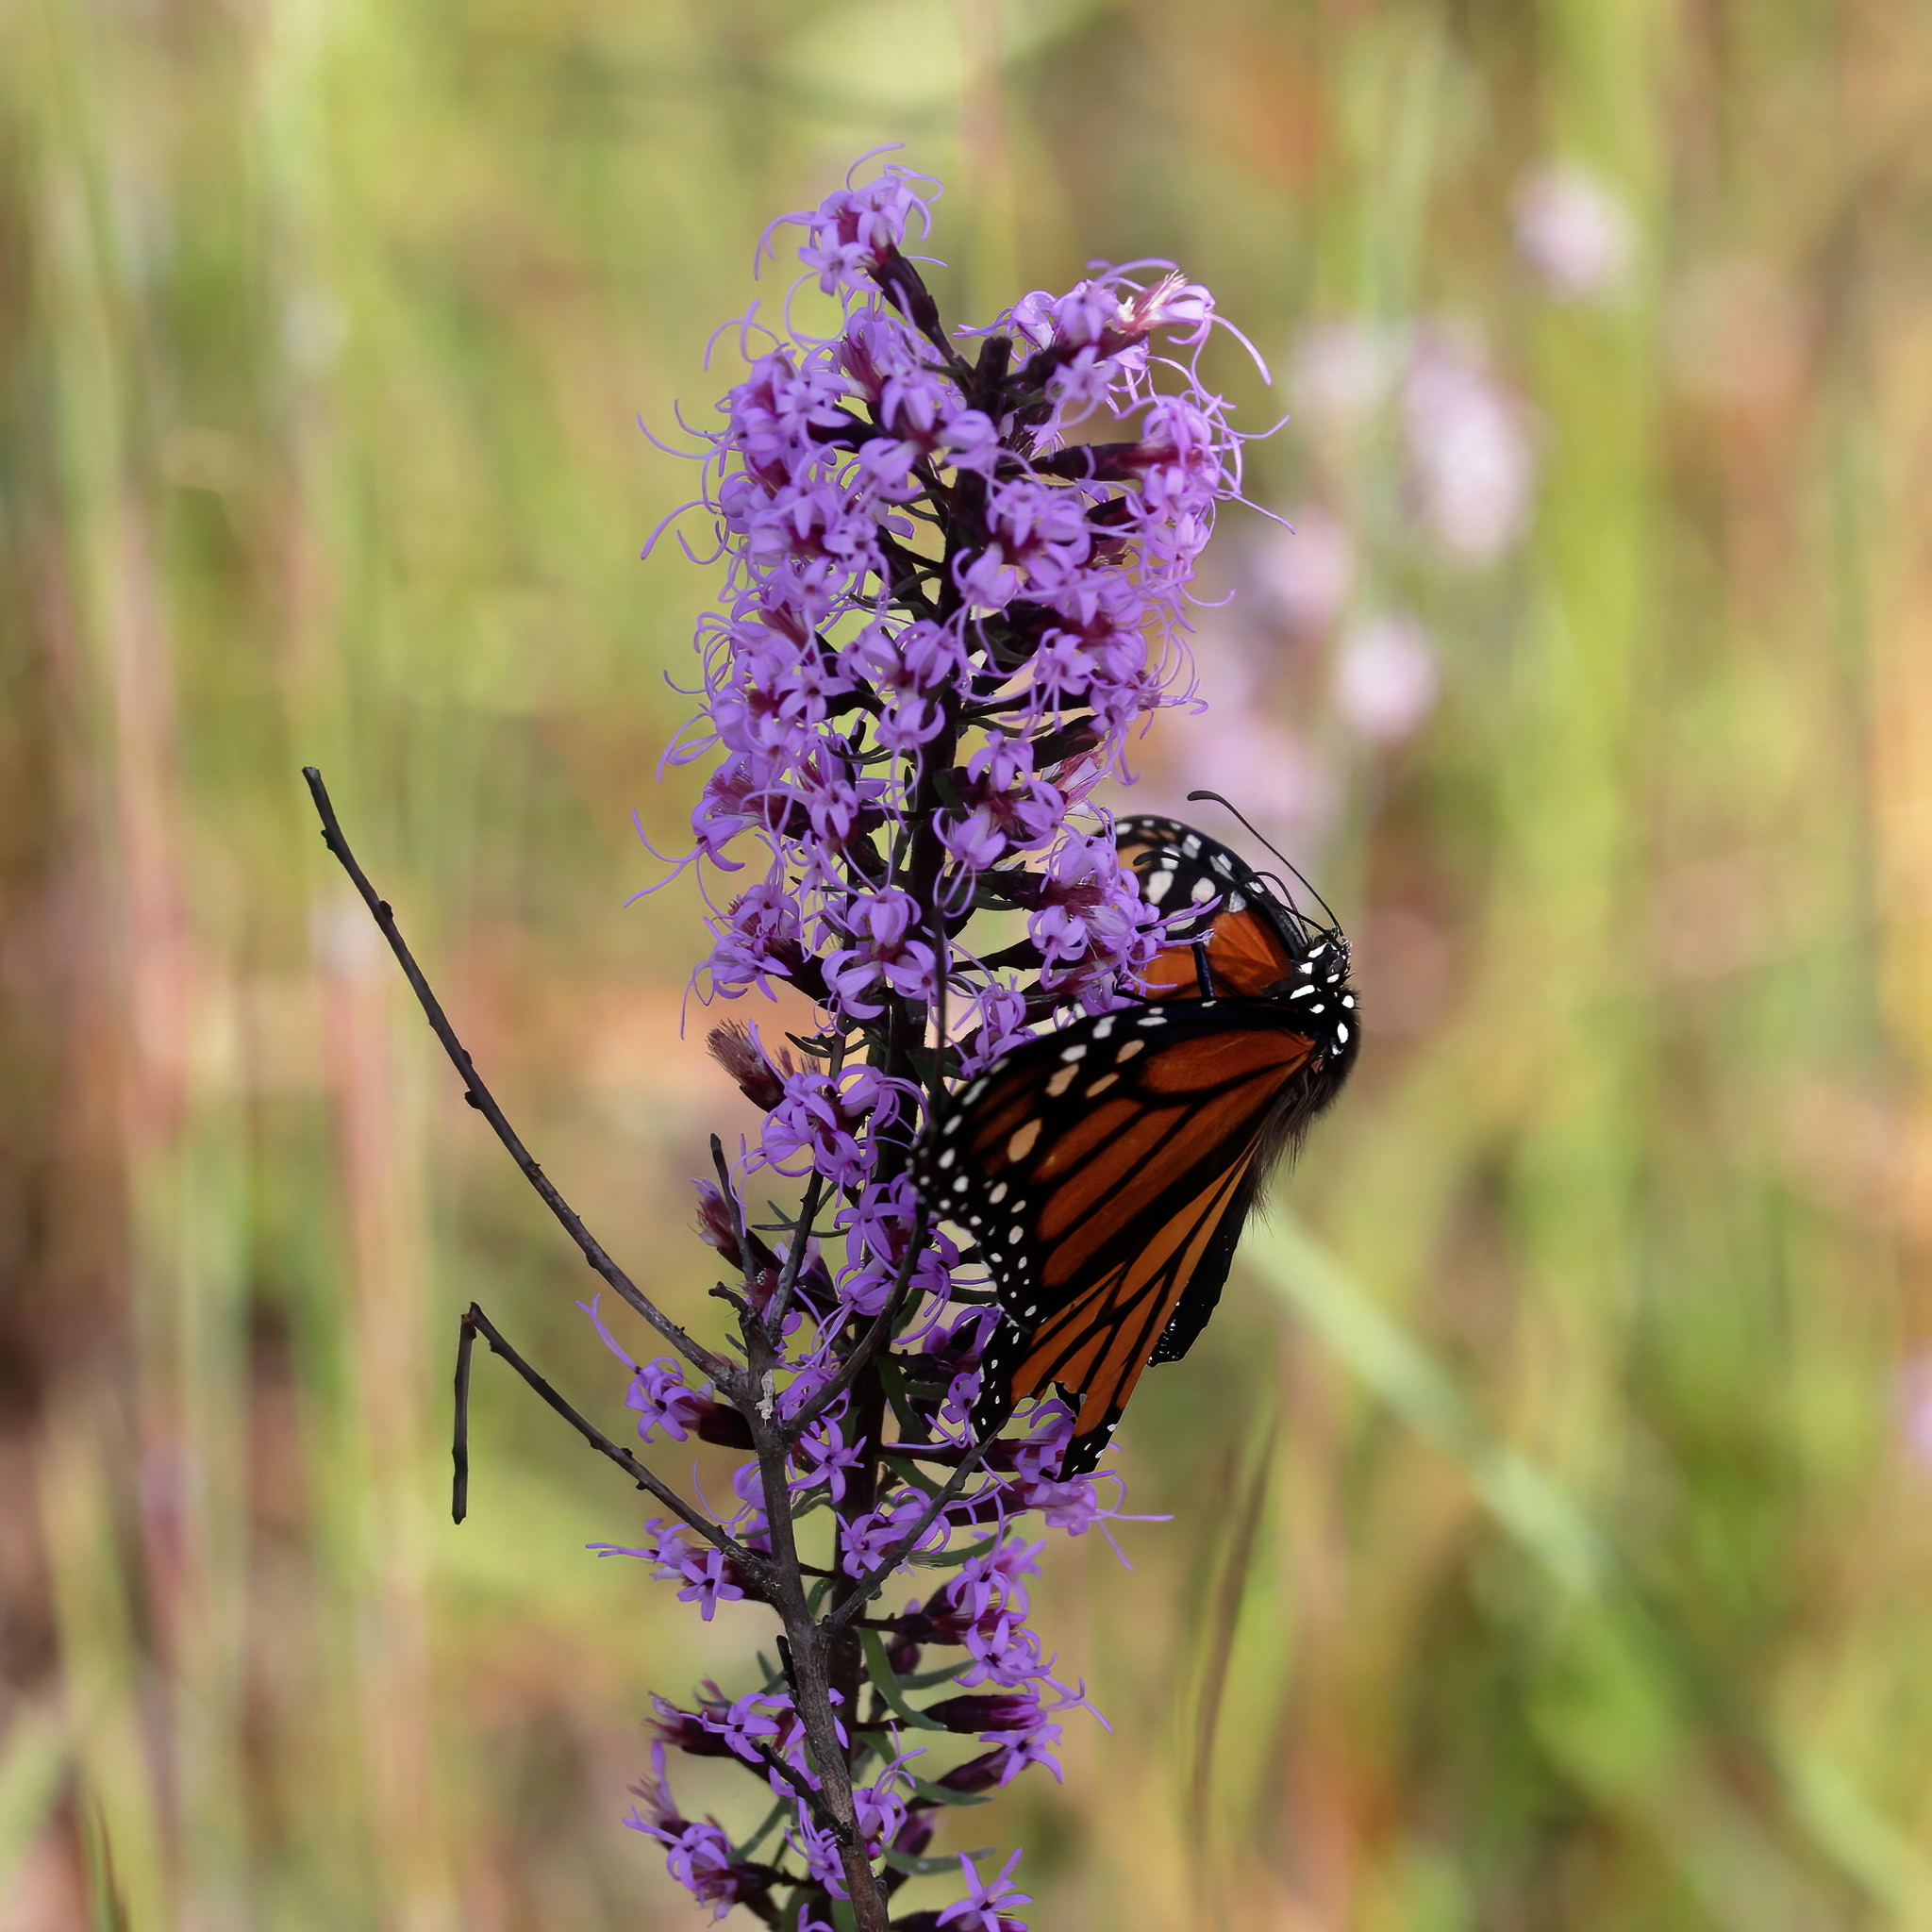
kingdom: Animalia
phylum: Arthropoda
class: Insecta
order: Lepidoptera
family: Nymphalidae
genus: Danaus
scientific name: Danaus plexippus
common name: Monarch
